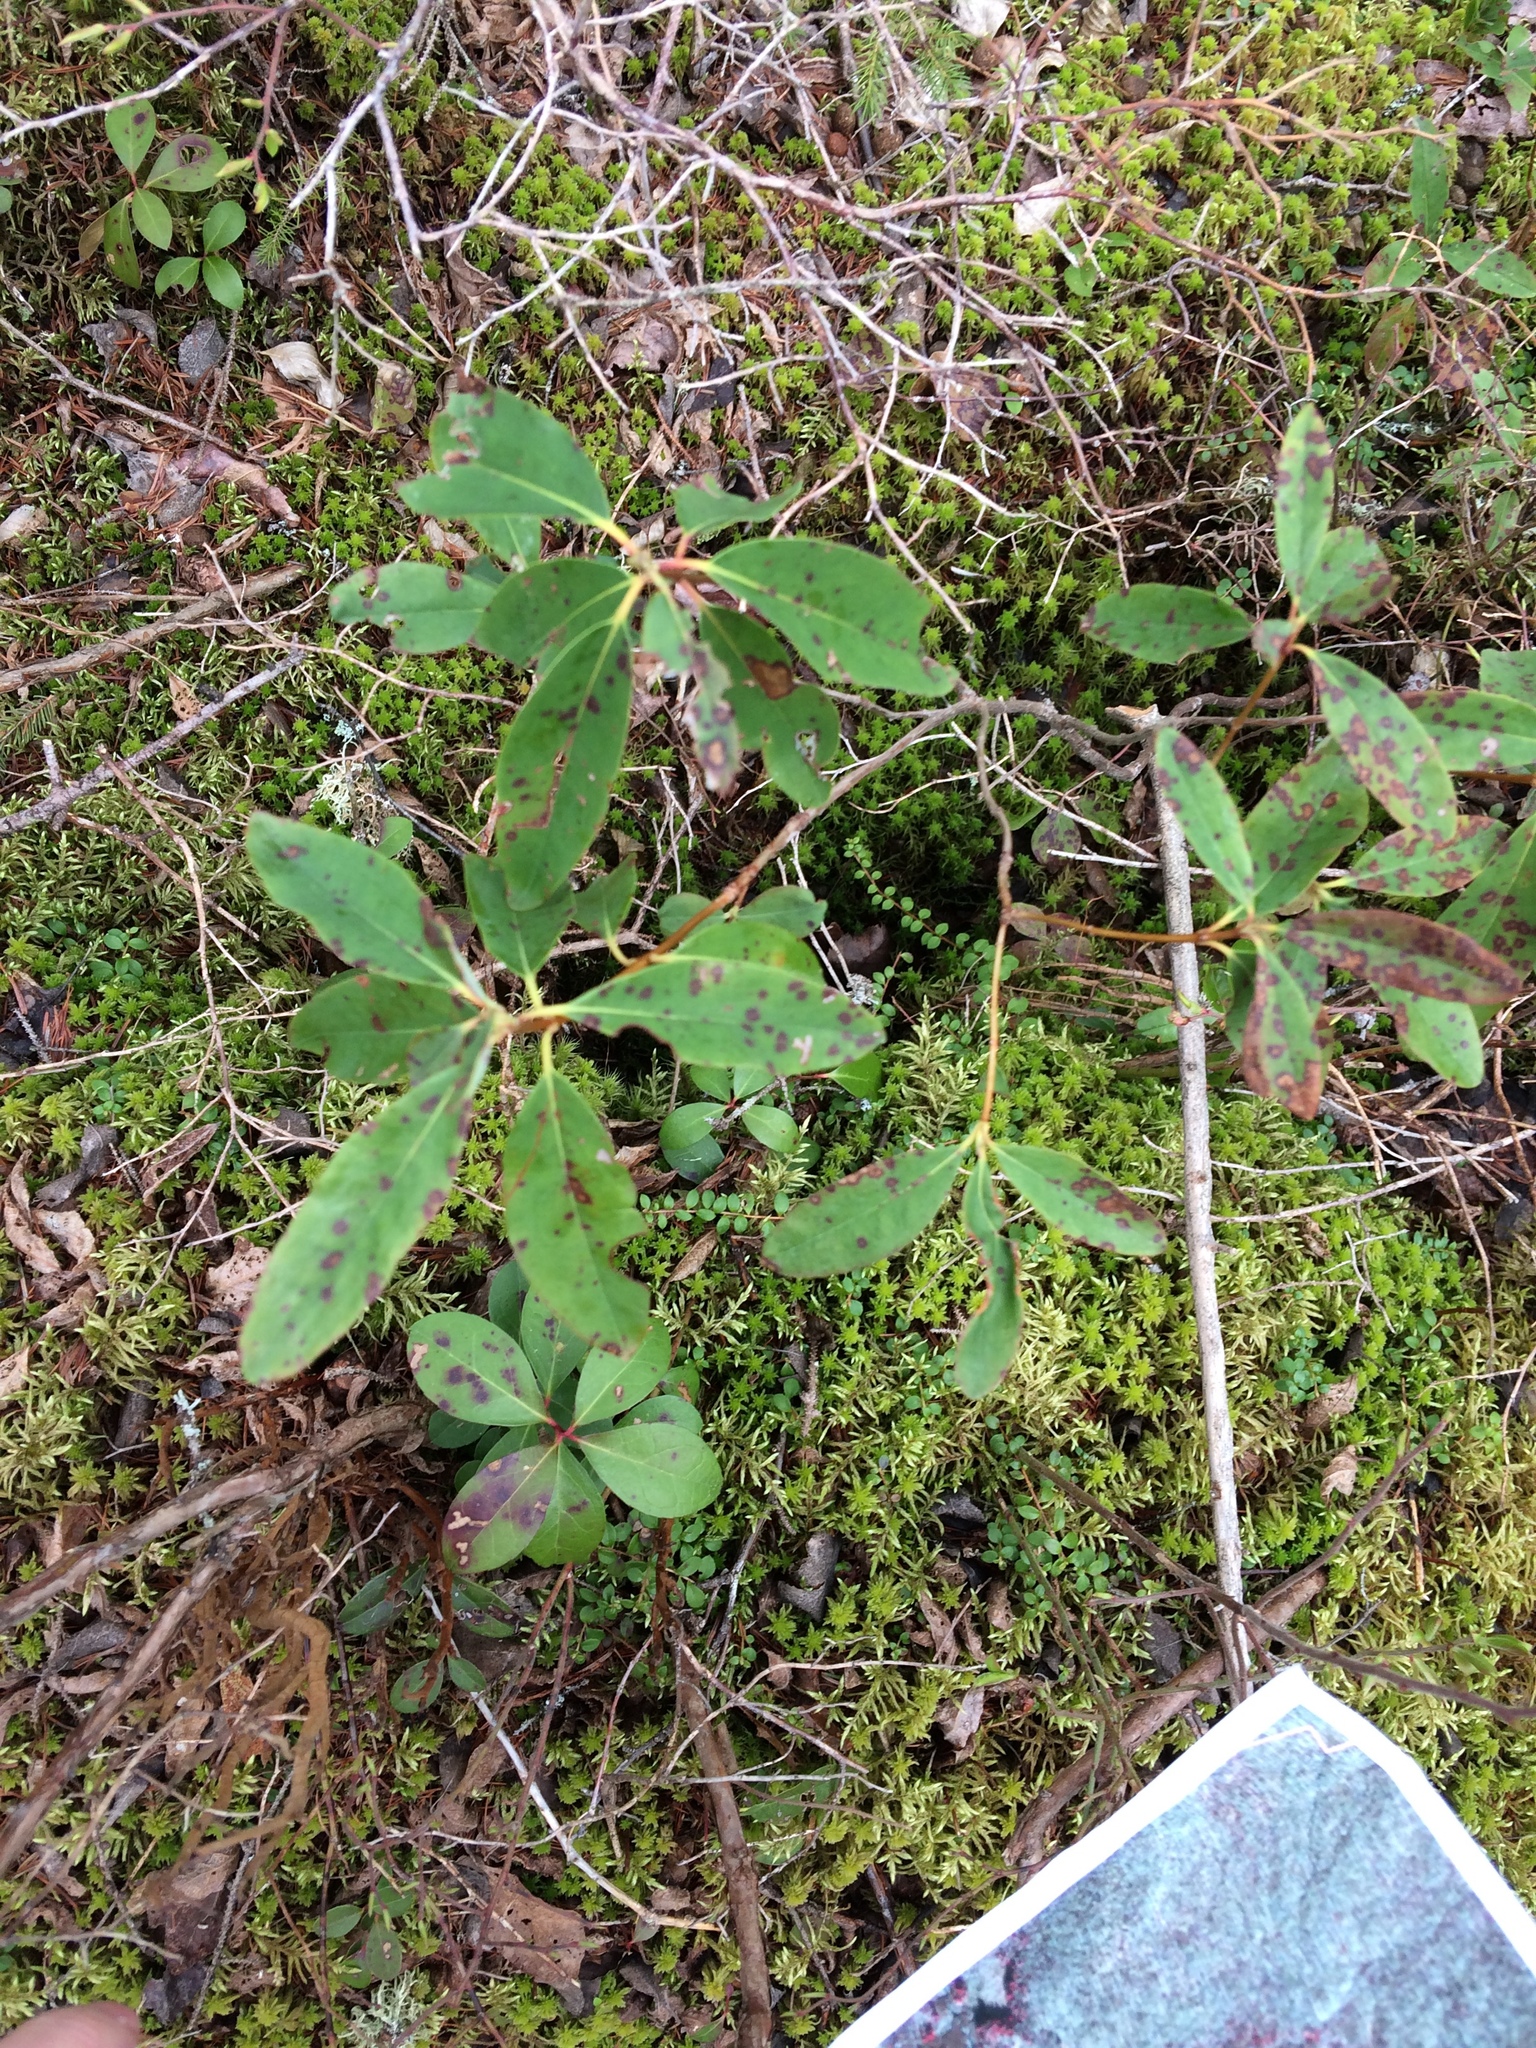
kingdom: Plantae
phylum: Tracheophyta
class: Magnoliopsida
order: Ericales
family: Ericaceae
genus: Kalmia
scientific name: Kalmia angustifolia
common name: Sheep-laurel
